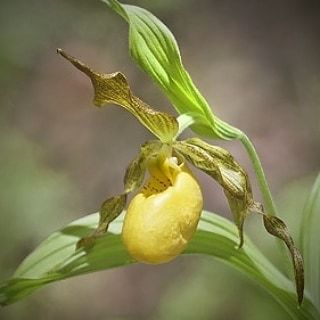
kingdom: Plantae
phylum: Tracheophyta
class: Liliopsida
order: Asparagales
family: Orchidaceae
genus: Cypripedium
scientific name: Cypripedium parviflorum
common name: American yellow lady's-slipper
